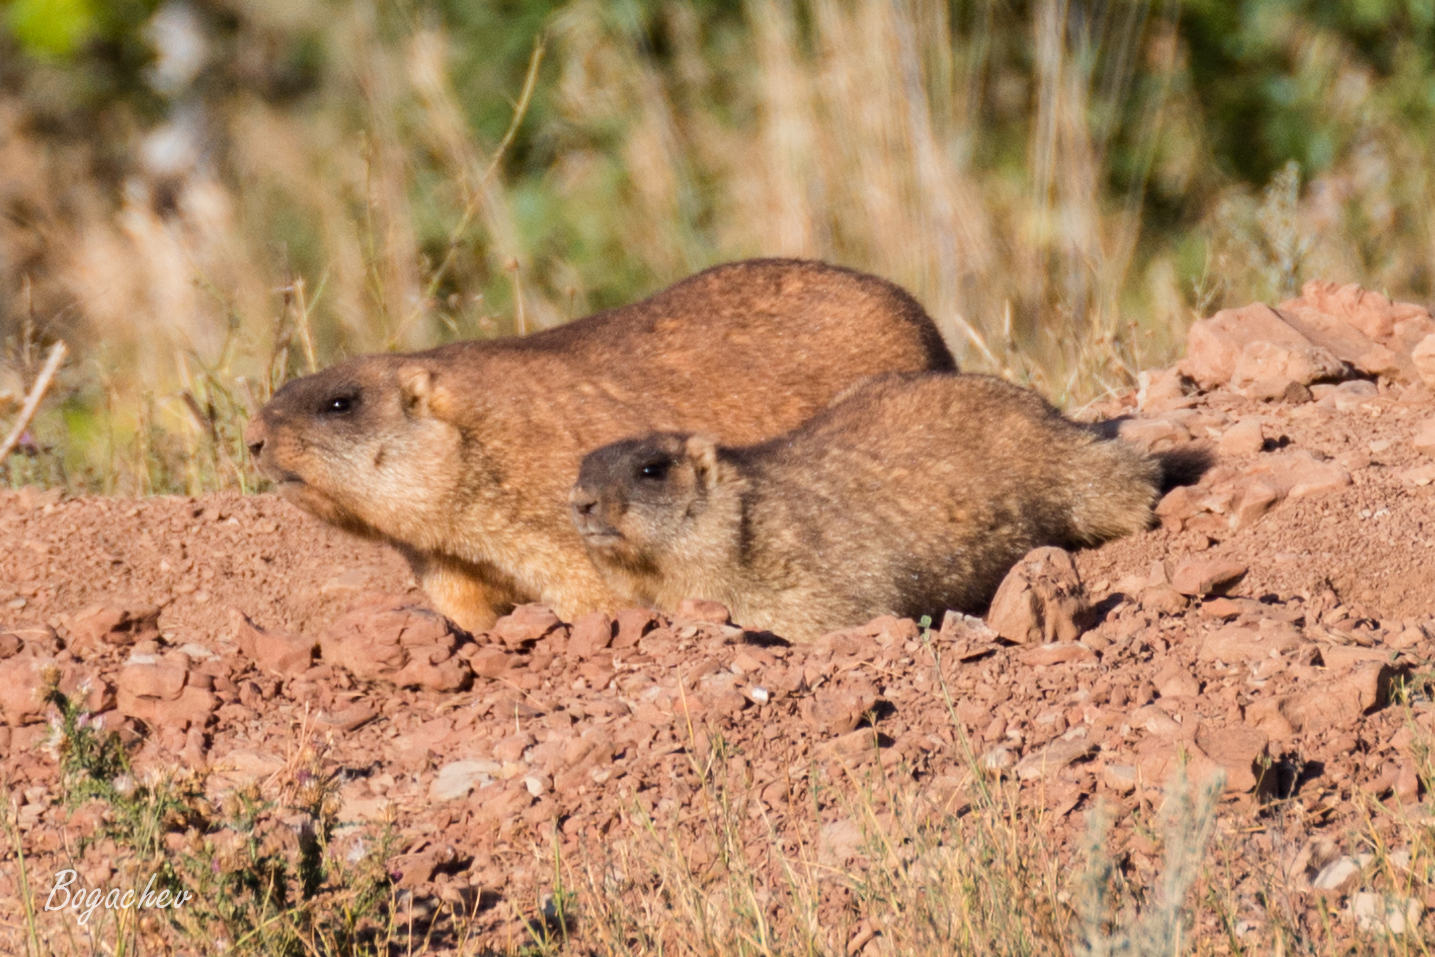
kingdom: Animalia
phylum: Chordata
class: Mammalia
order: Rodentia
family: Sciuridae
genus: Marmota
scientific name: Marmota bobak
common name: Bobak marmot
